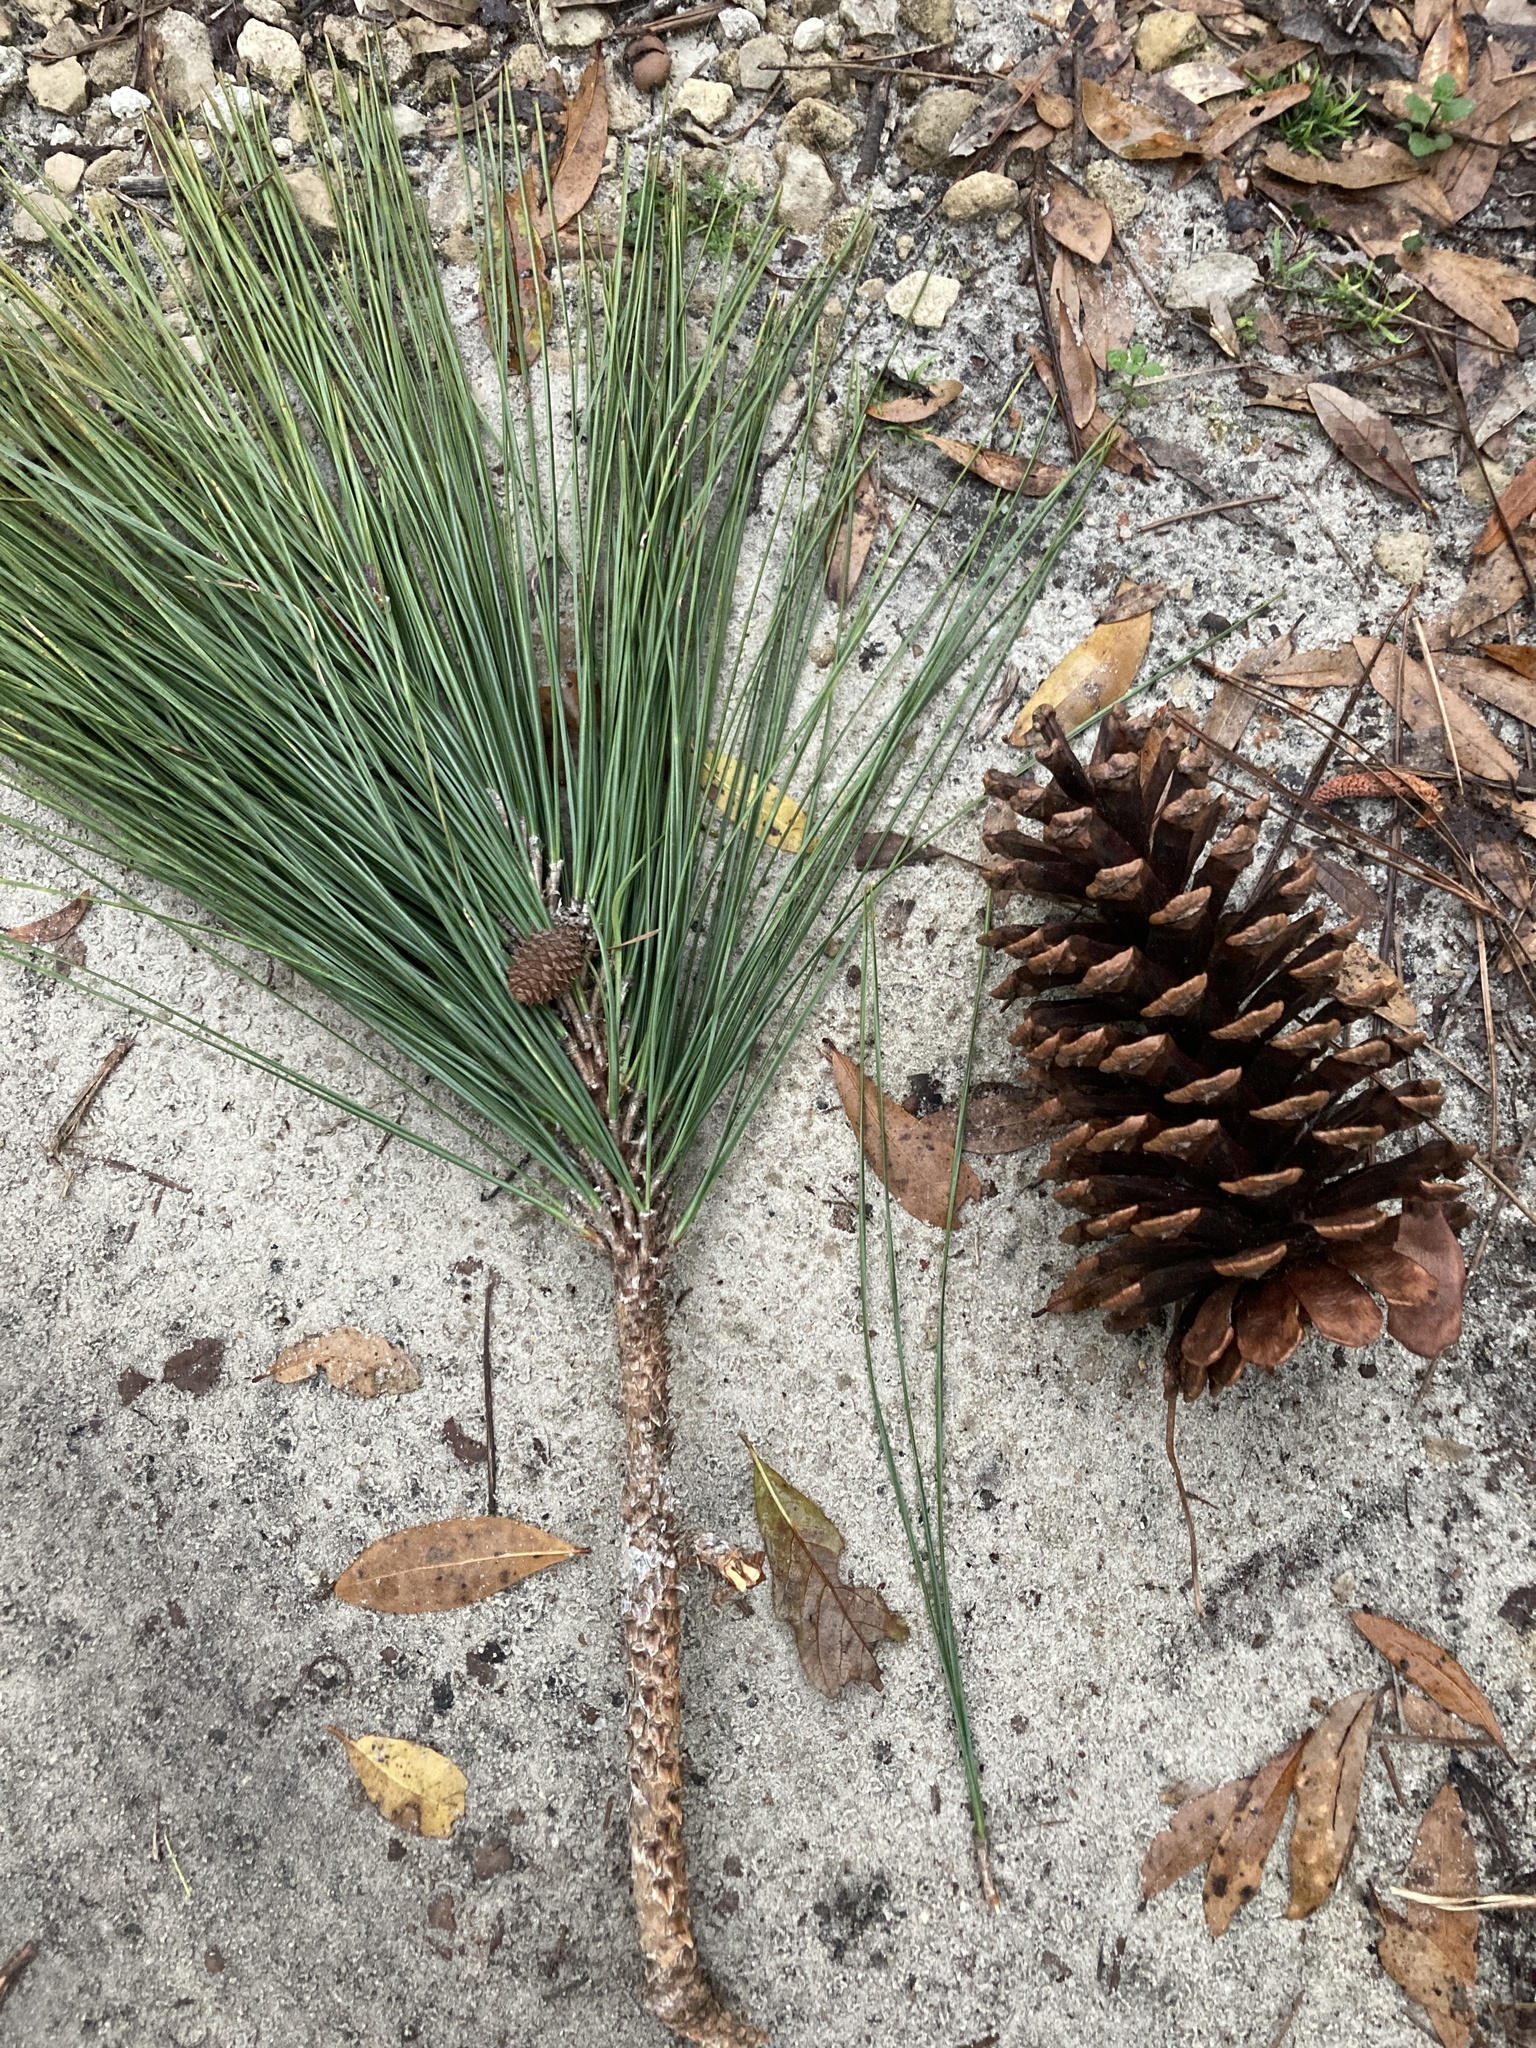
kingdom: Plantae
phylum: Tracheophyta
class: Pinopsida
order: Pinales
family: Pinaceae
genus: Pinus
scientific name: Pinus palustris
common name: Longleaf pine
